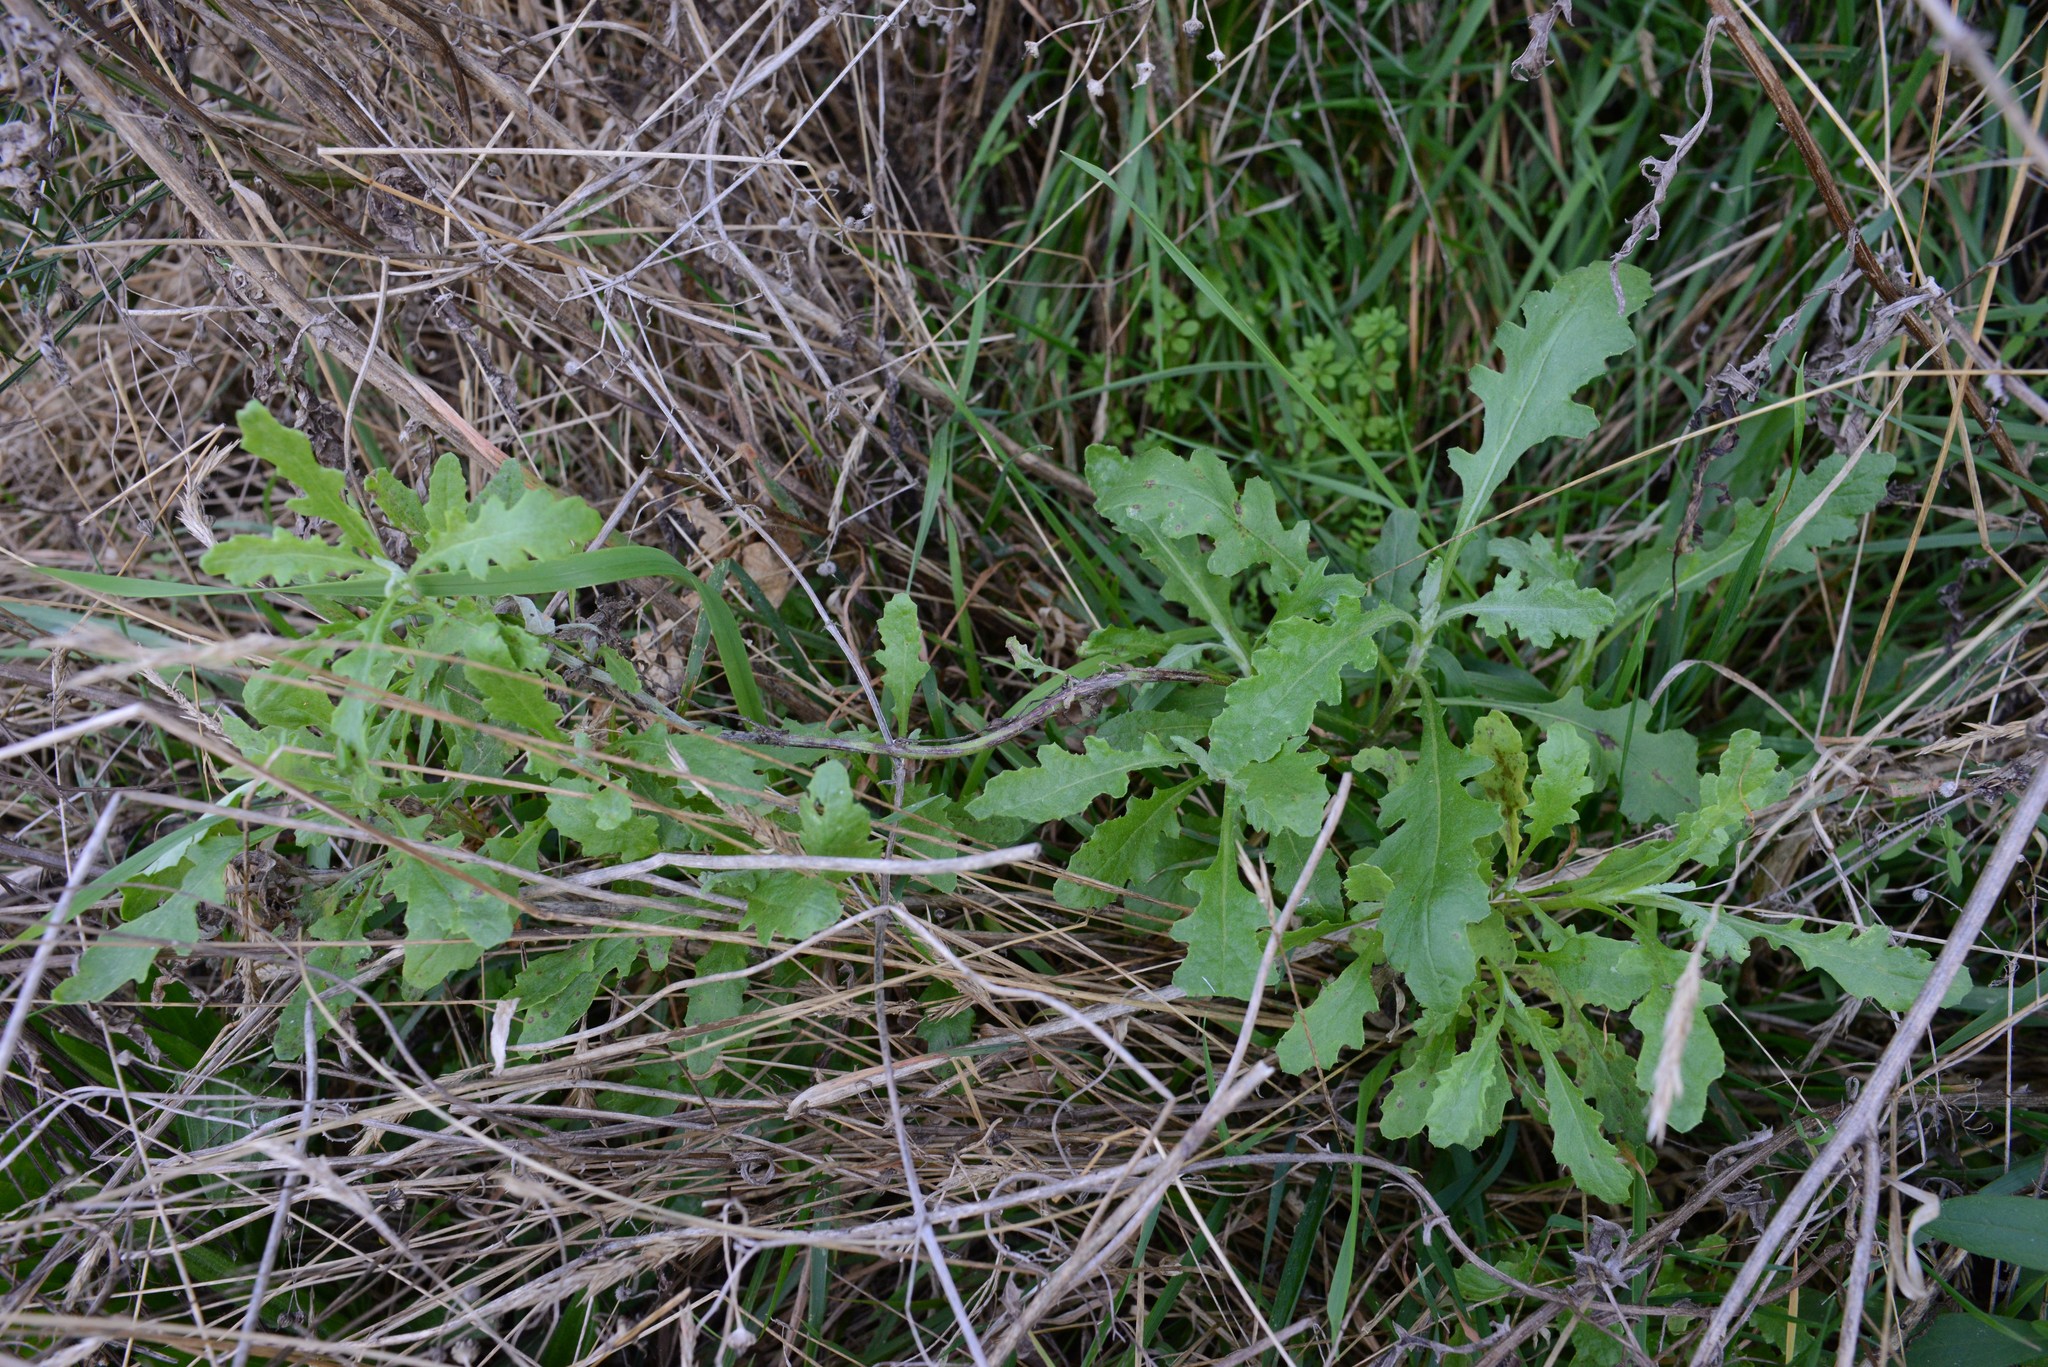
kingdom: Plantae
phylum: Tracheophyta
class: Magnoliopsida
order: Asterales
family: Asteraceae
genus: Senecio
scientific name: Senecio glomeratus
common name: Cutleaf burnweed
